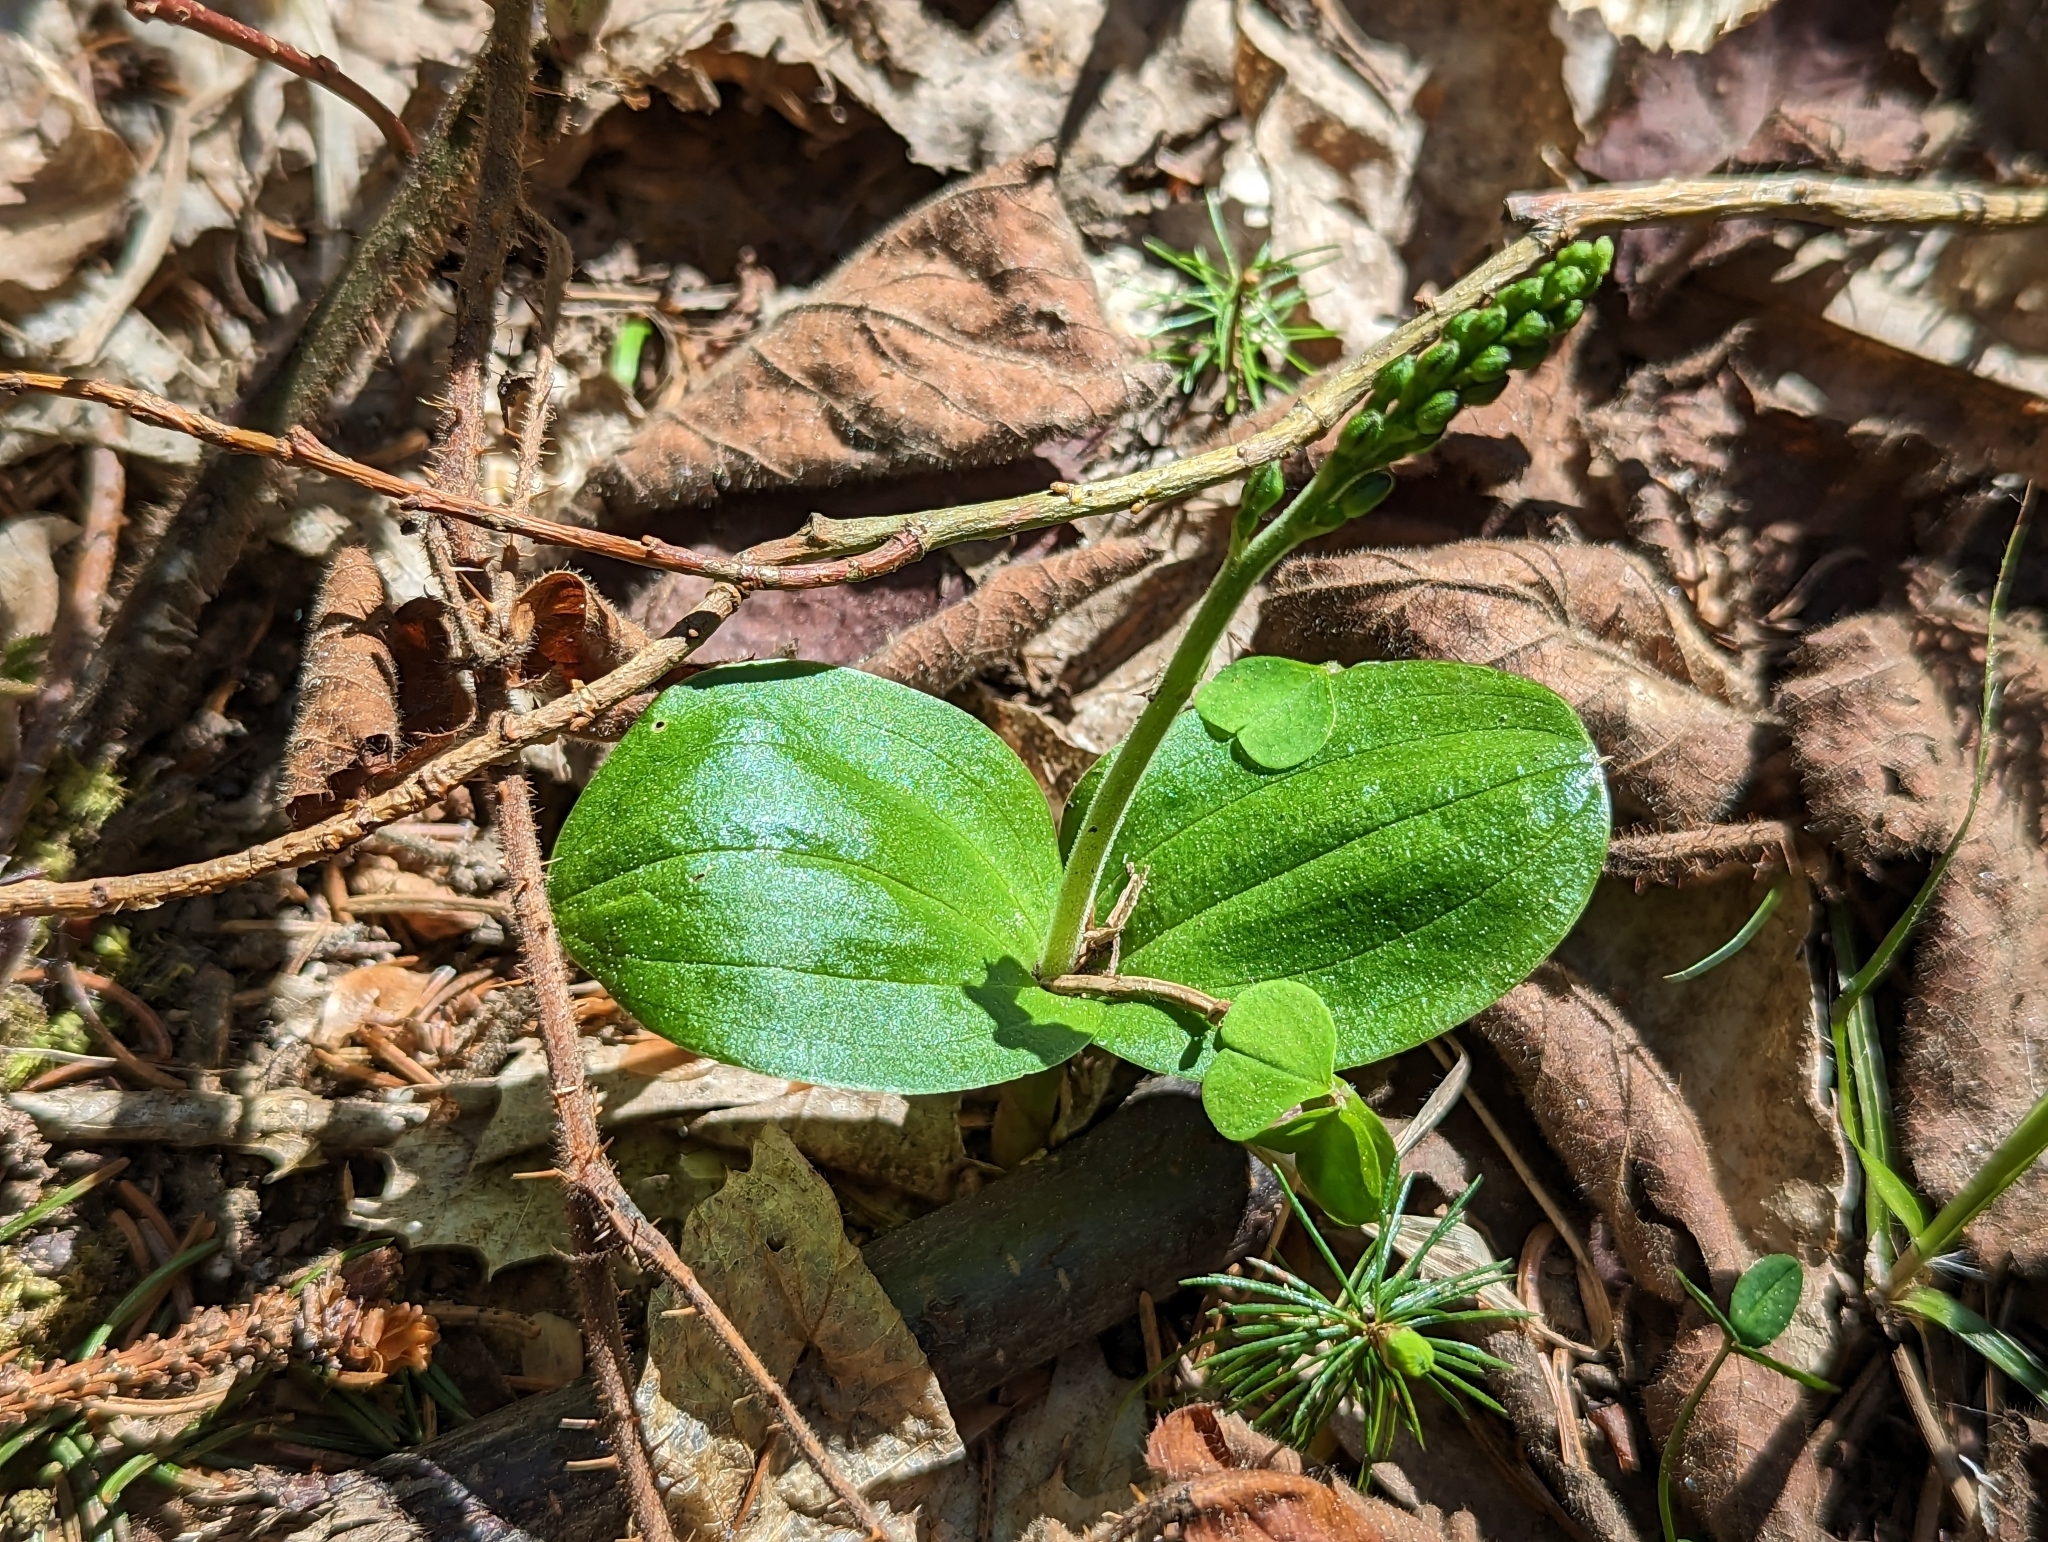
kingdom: Plantae
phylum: Tracheophyta
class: Liliopsida
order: Asparagales
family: Orchidaceae
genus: Neottia
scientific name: Neottia ovata
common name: Common twayblade
